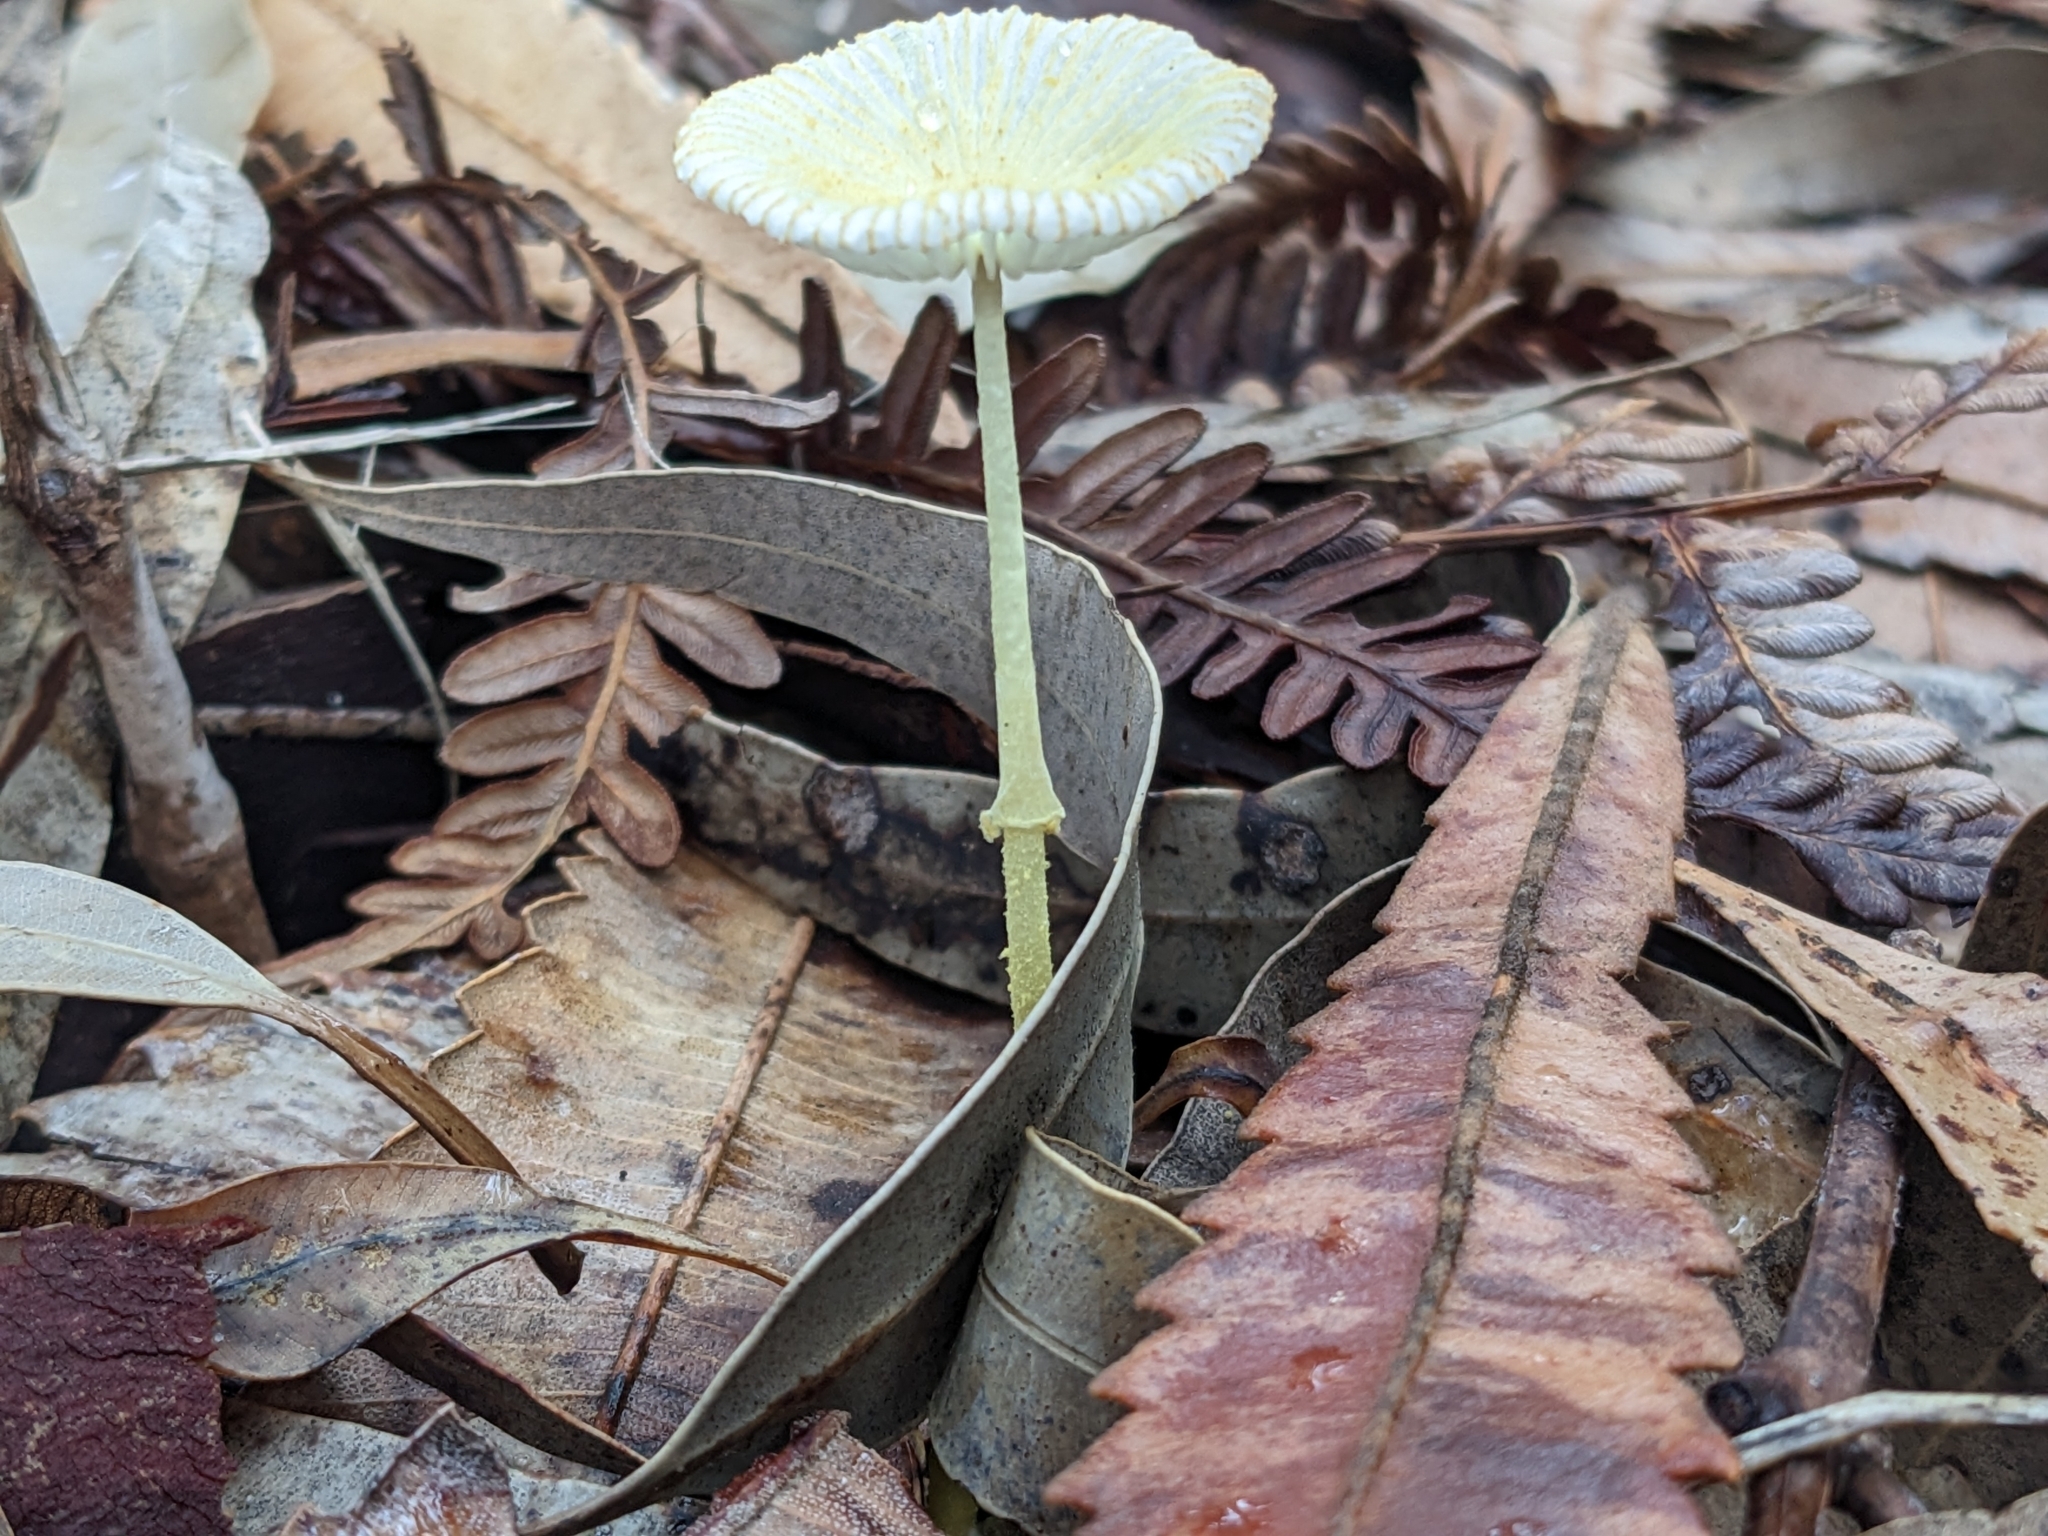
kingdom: Fungi
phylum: Basidiomycota
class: Agaricomycetes
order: Agaricales
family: Agaricaceae
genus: Leucocoprinus
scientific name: Leucocoprinus fragilissimus
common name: Fragile dapperling
